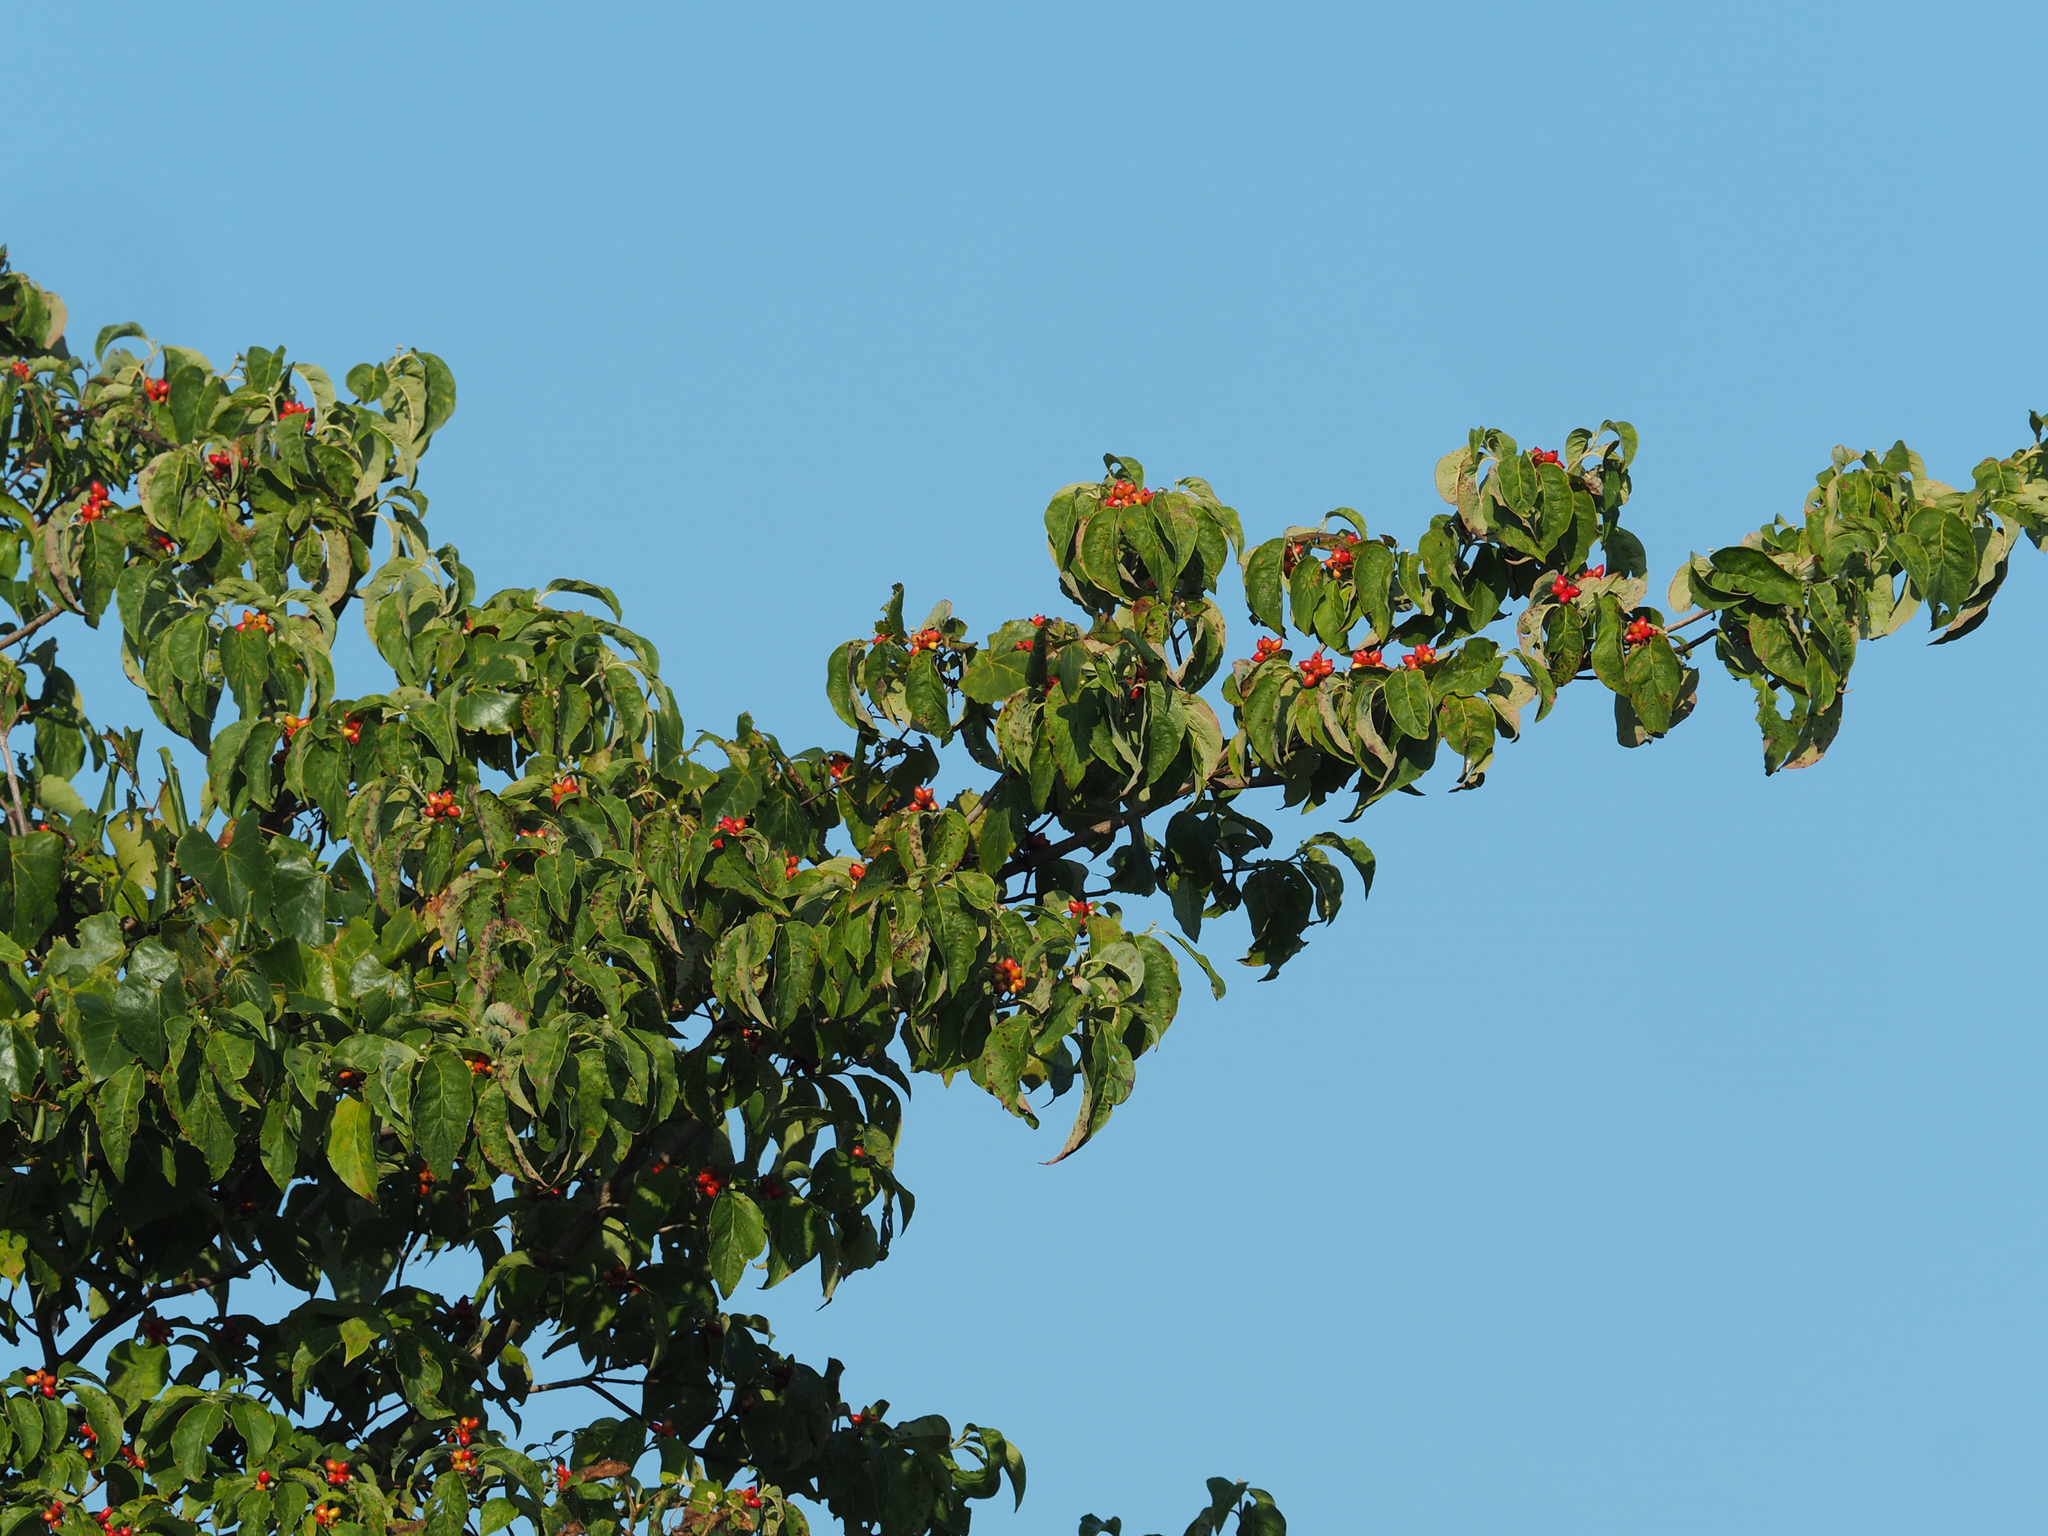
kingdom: Plantae
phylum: Tracheophyta
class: Magnoliopsida
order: Cornales
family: Cornaceae
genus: Cornus
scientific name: Cornus florida
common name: Flowering dogwood
